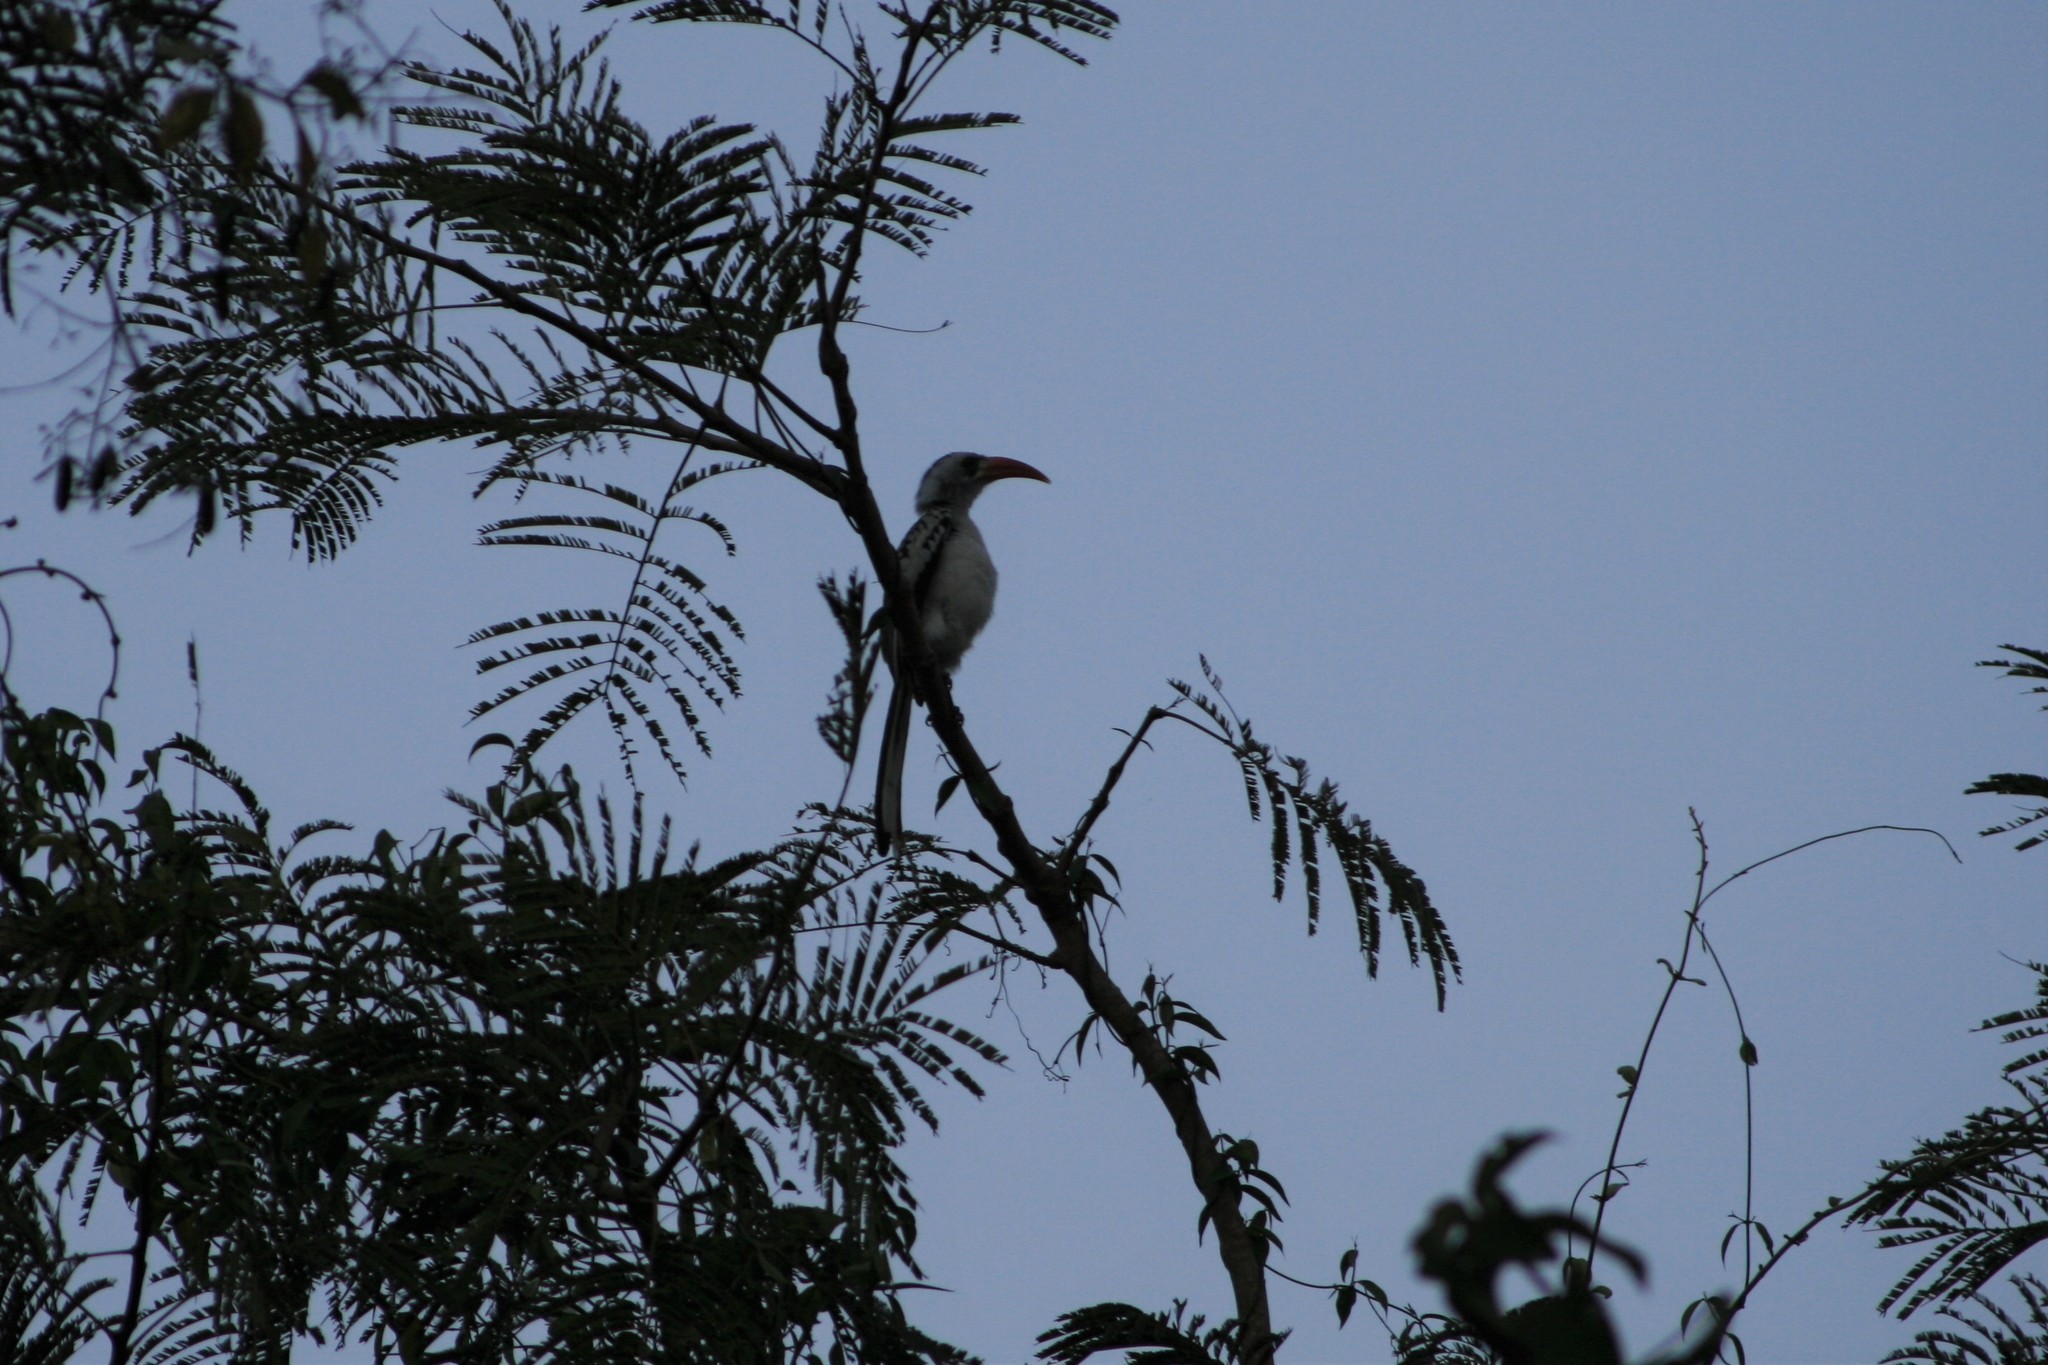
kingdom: Animalia
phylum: Chordata
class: Aves
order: Bucerotiformes
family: Bucerotidae
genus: Tockus
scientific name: Tockus kempi
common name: Western red-billed hornbill
